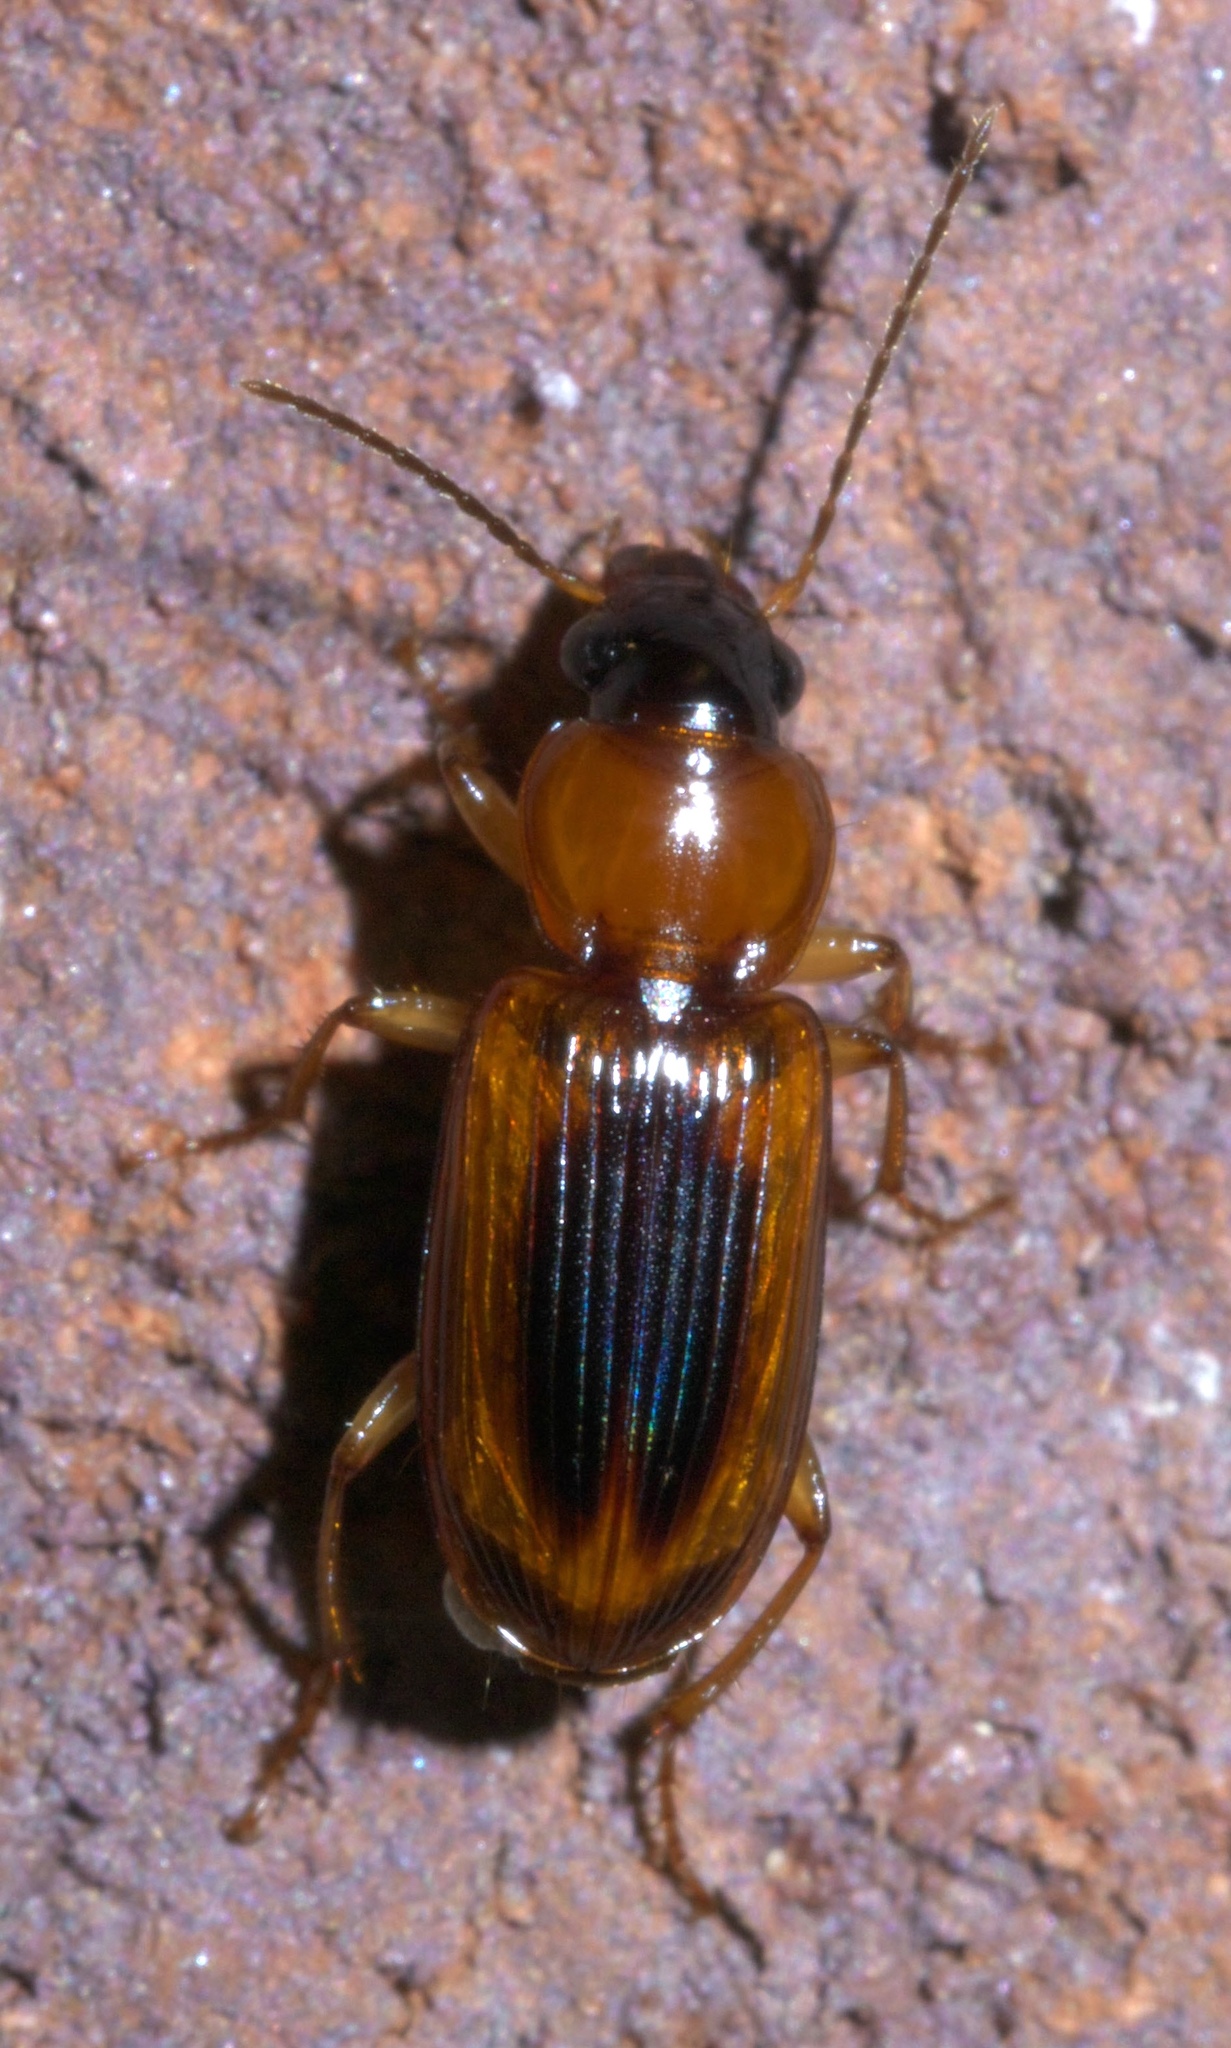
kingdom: Animalia
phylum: Arthropoda
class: Insecta
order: Coleoptera
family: Carabidae
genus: Stenolophus
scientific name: Stenolophus dissimilis
